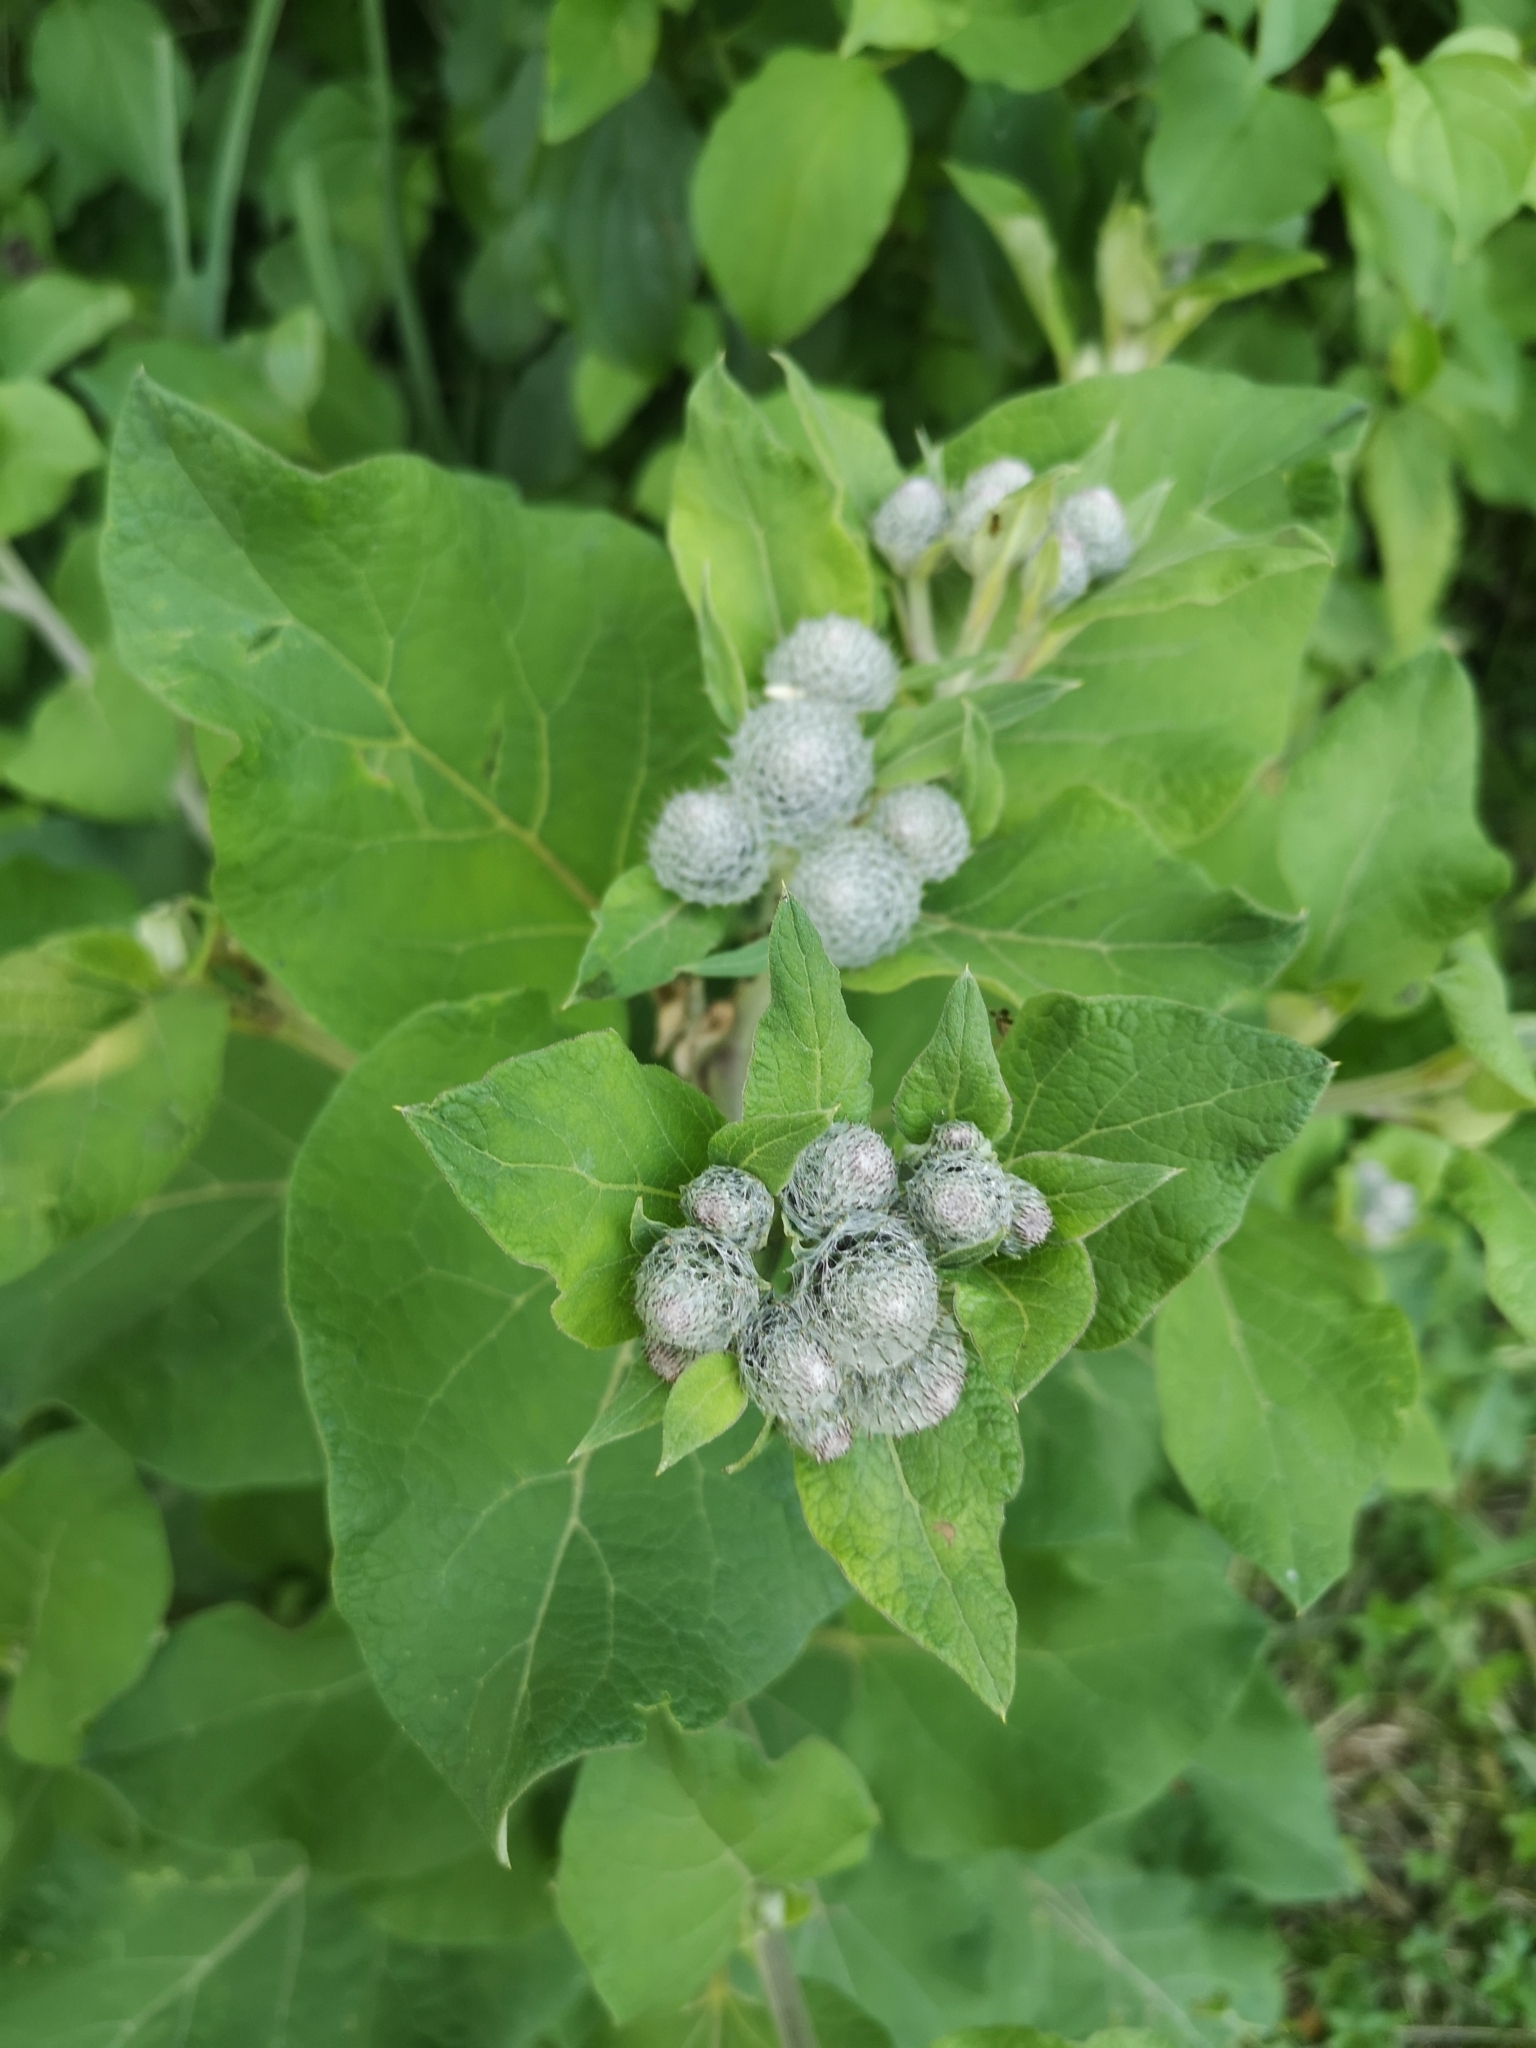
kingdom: Plantae
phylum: Tracheophyta
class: Magnoliopsida
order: Asterales
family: Asteraceae
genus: Arctium
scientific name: Arctium tomentosum
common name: Woolly burdock
